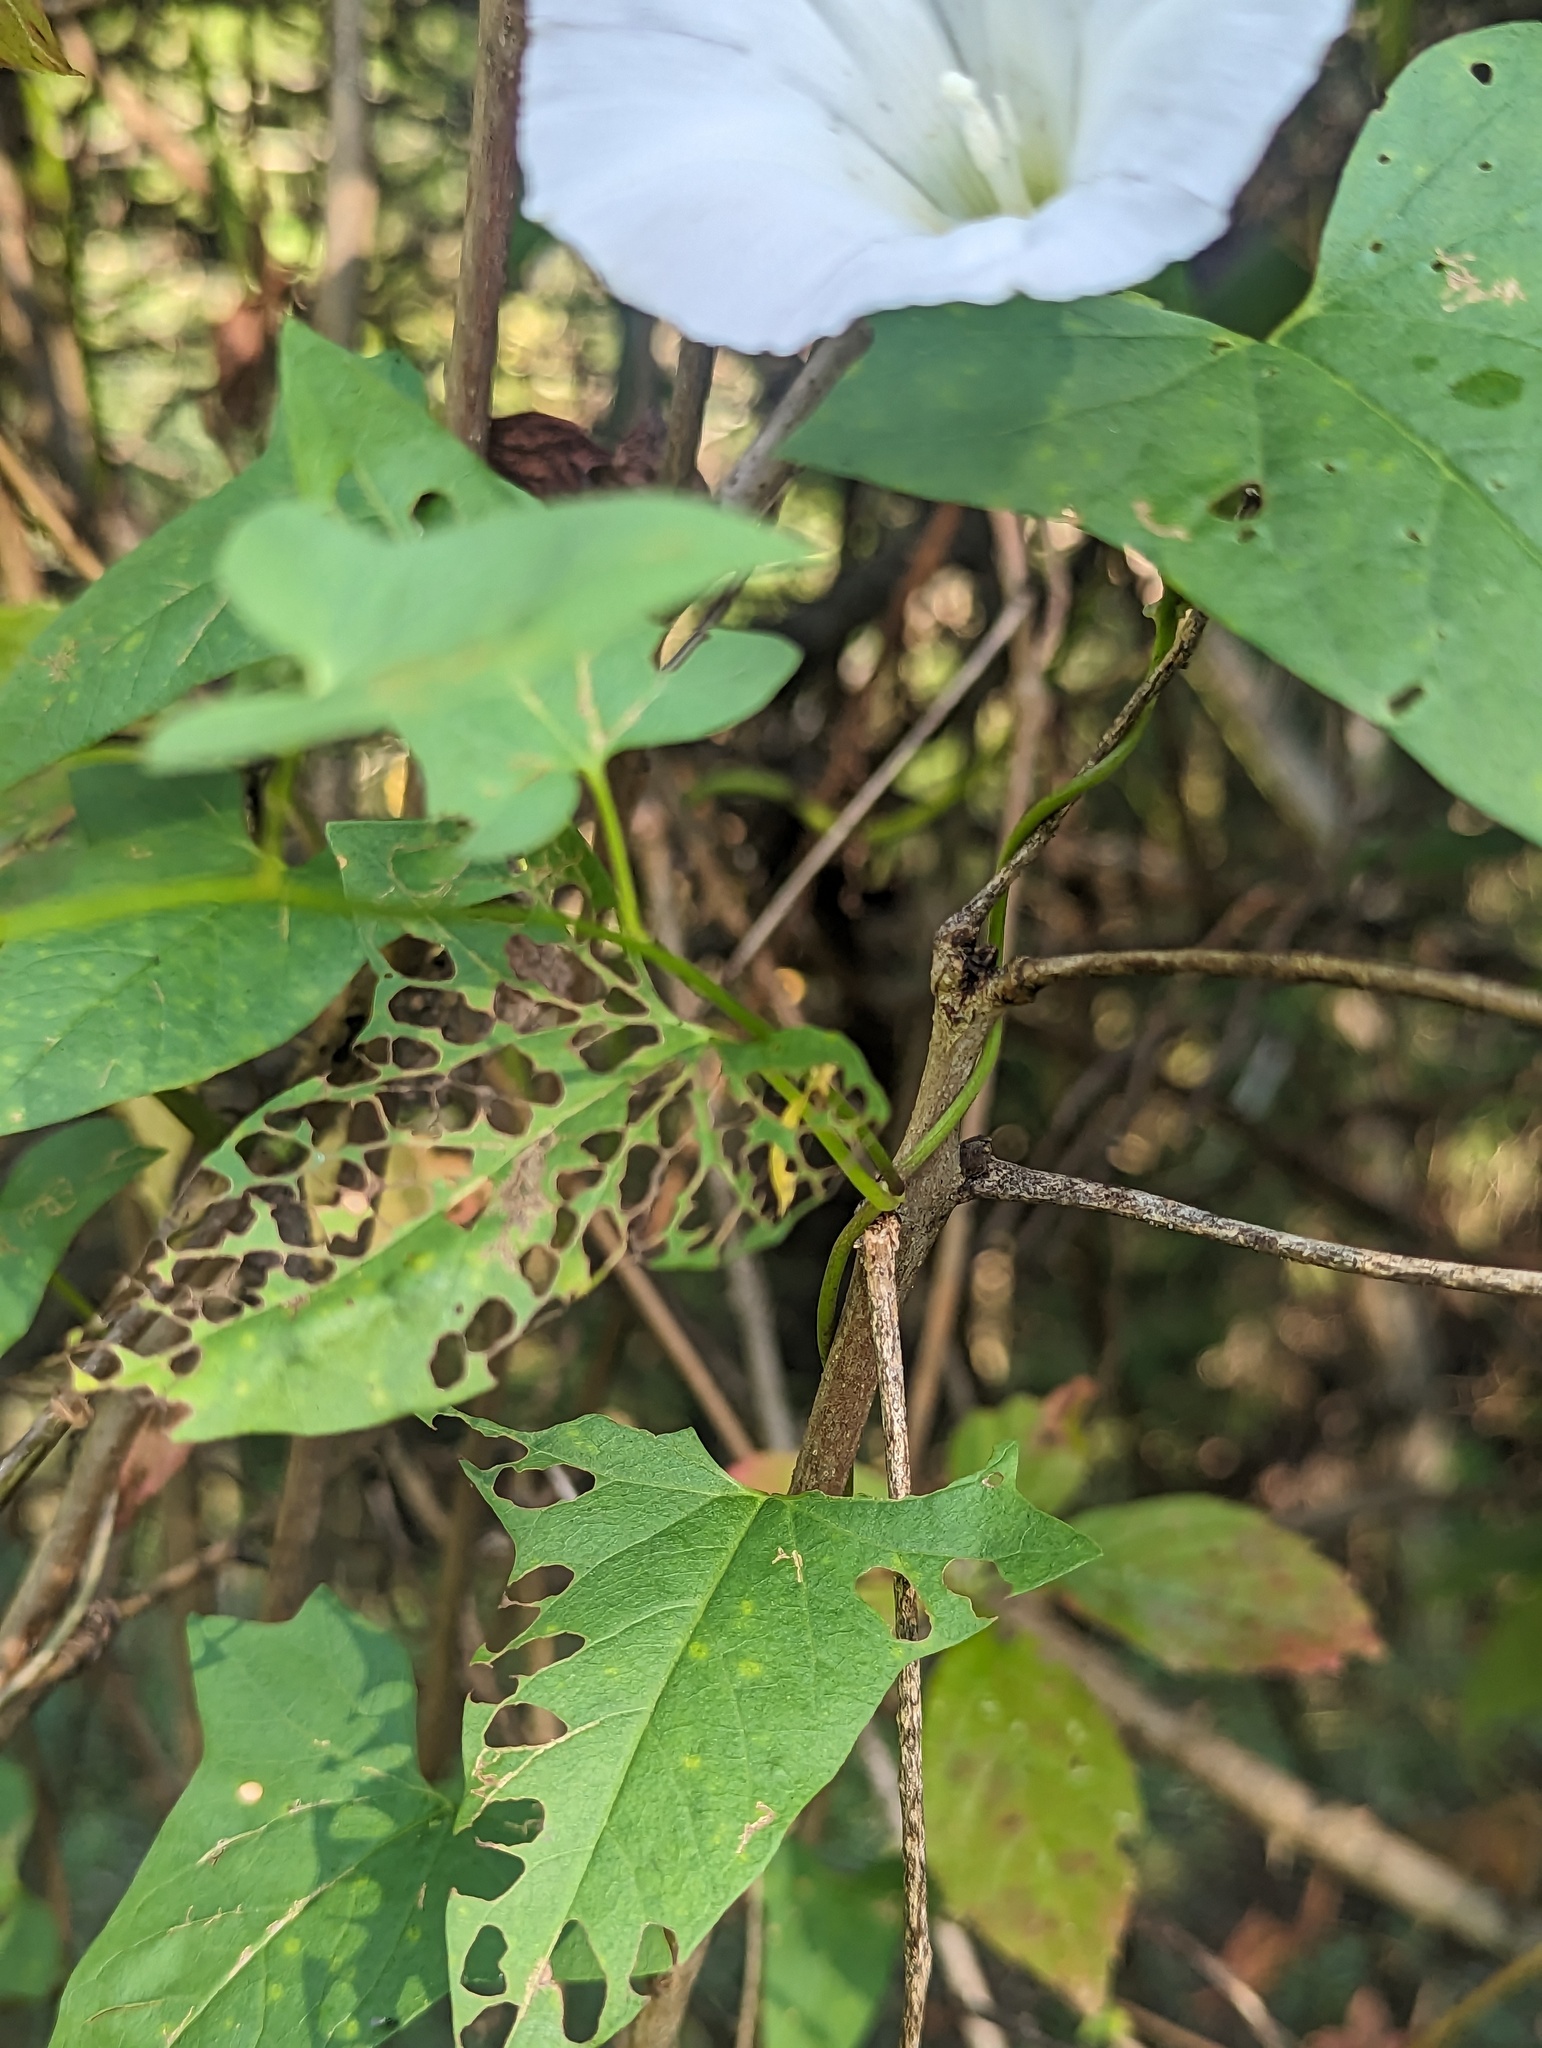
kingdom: Plantae
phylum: Tracheophyta
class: Magnoliopsida
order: Solanales
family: Convolvulaceae
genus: Calystegia
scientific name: Calystegia sepium
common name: Hedge bindweed
